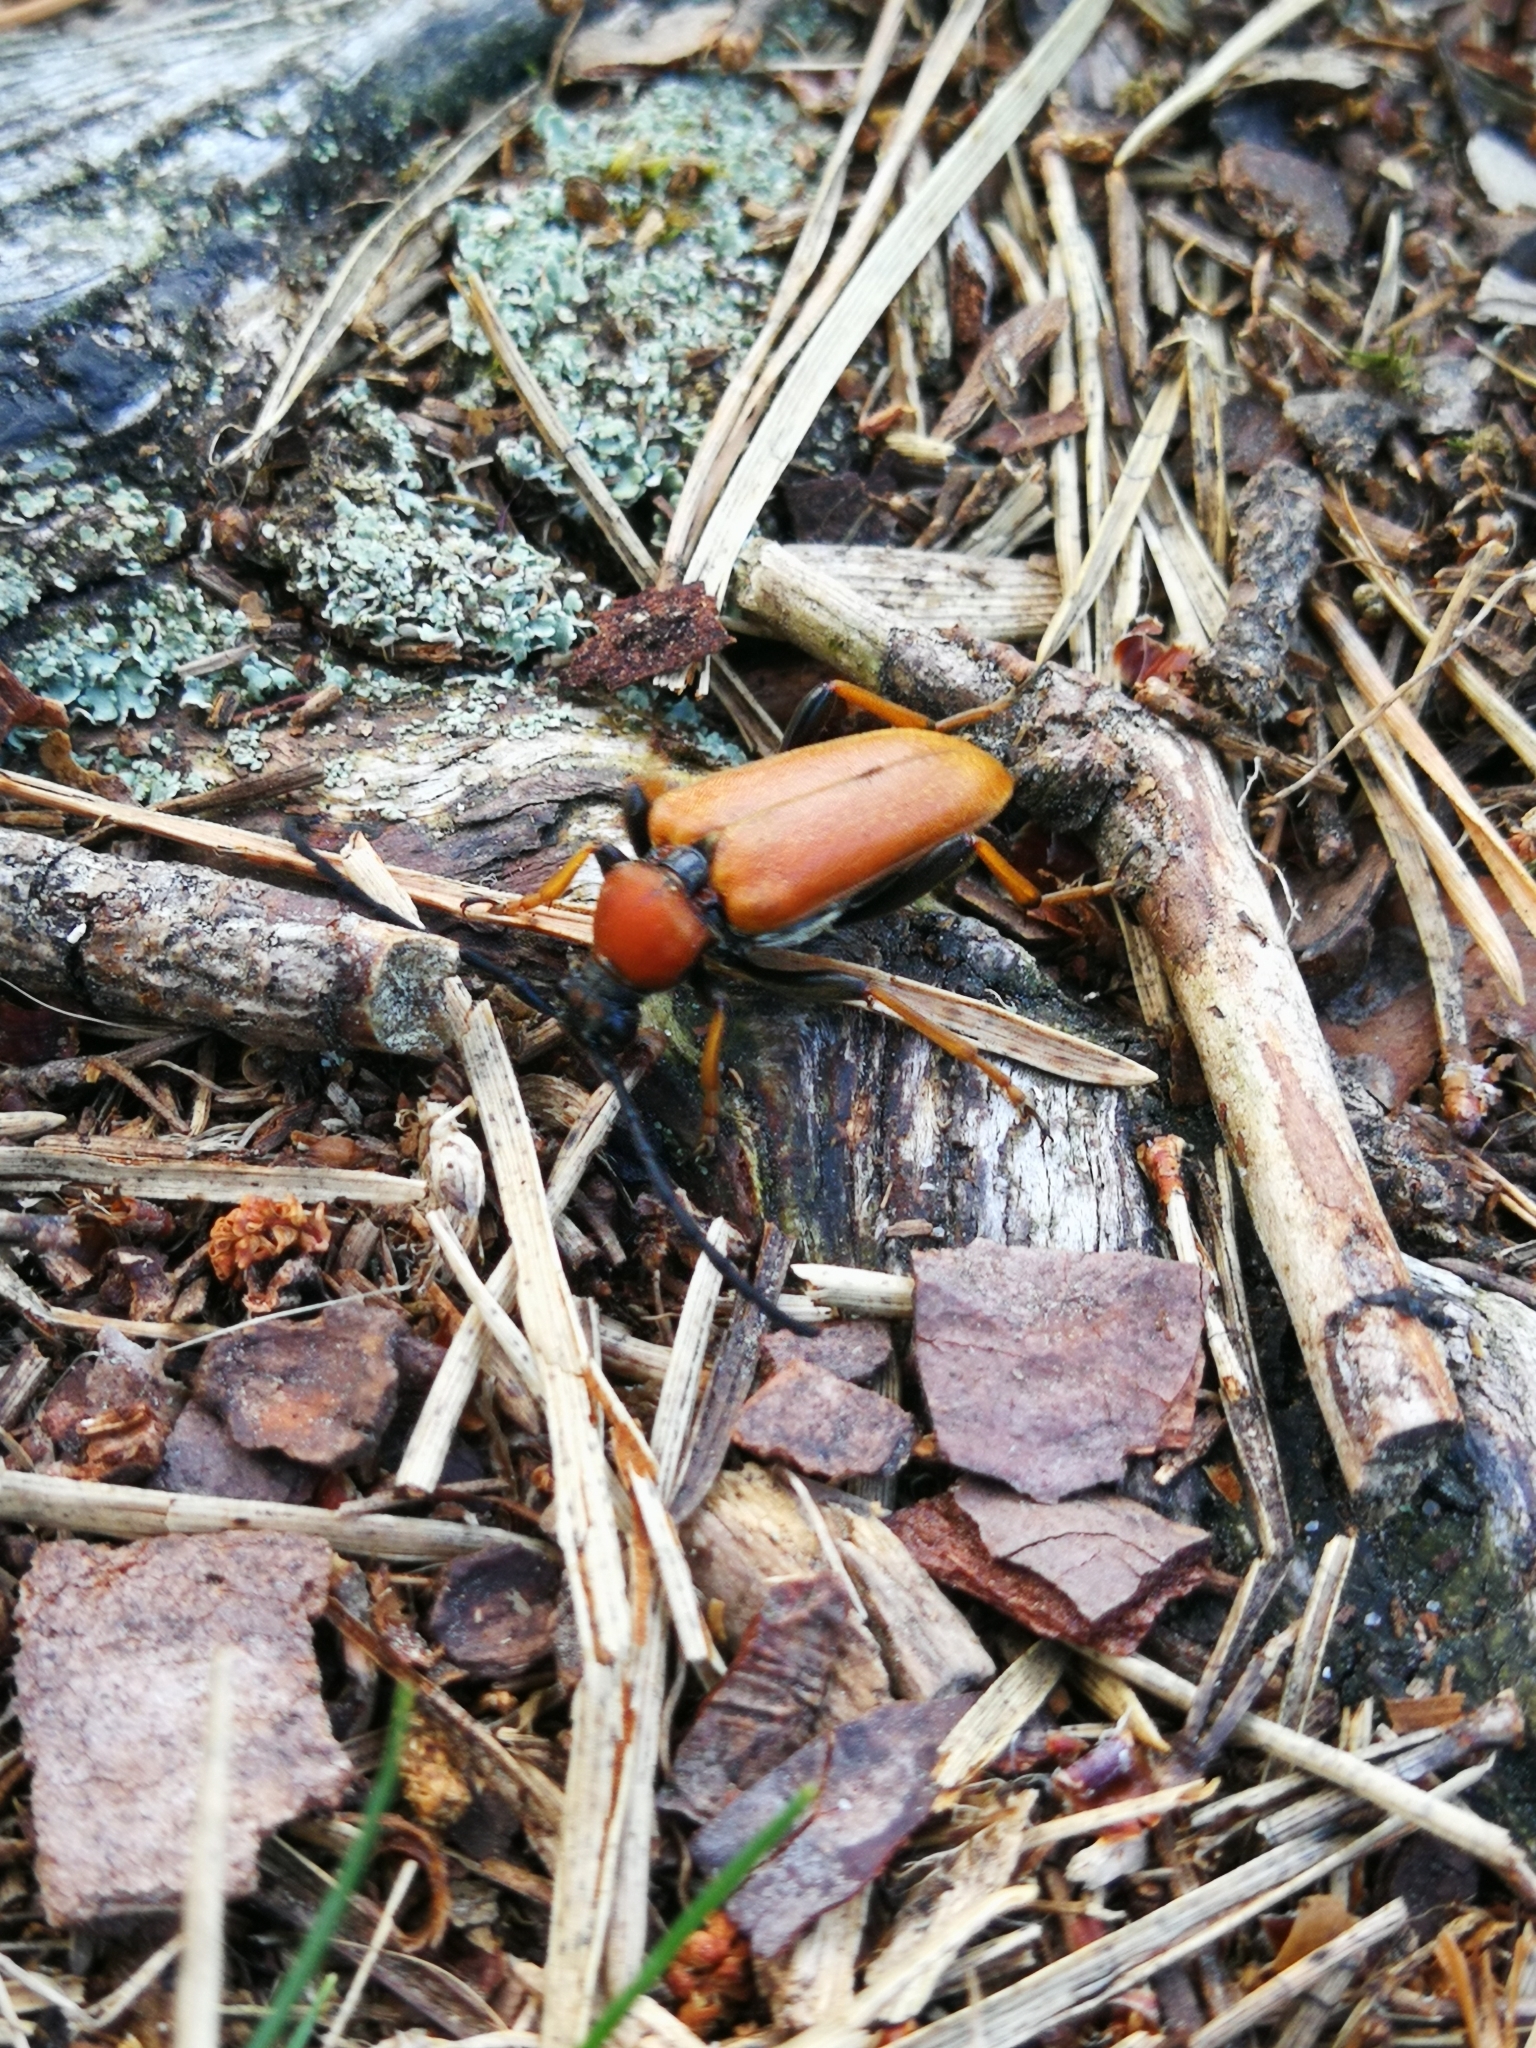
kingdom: Animalia
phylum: Arthropoda
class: Insecta
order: Coleoptera
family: Cerambycidae
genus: Stictoleptura
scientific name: Stictoleptura rubra
